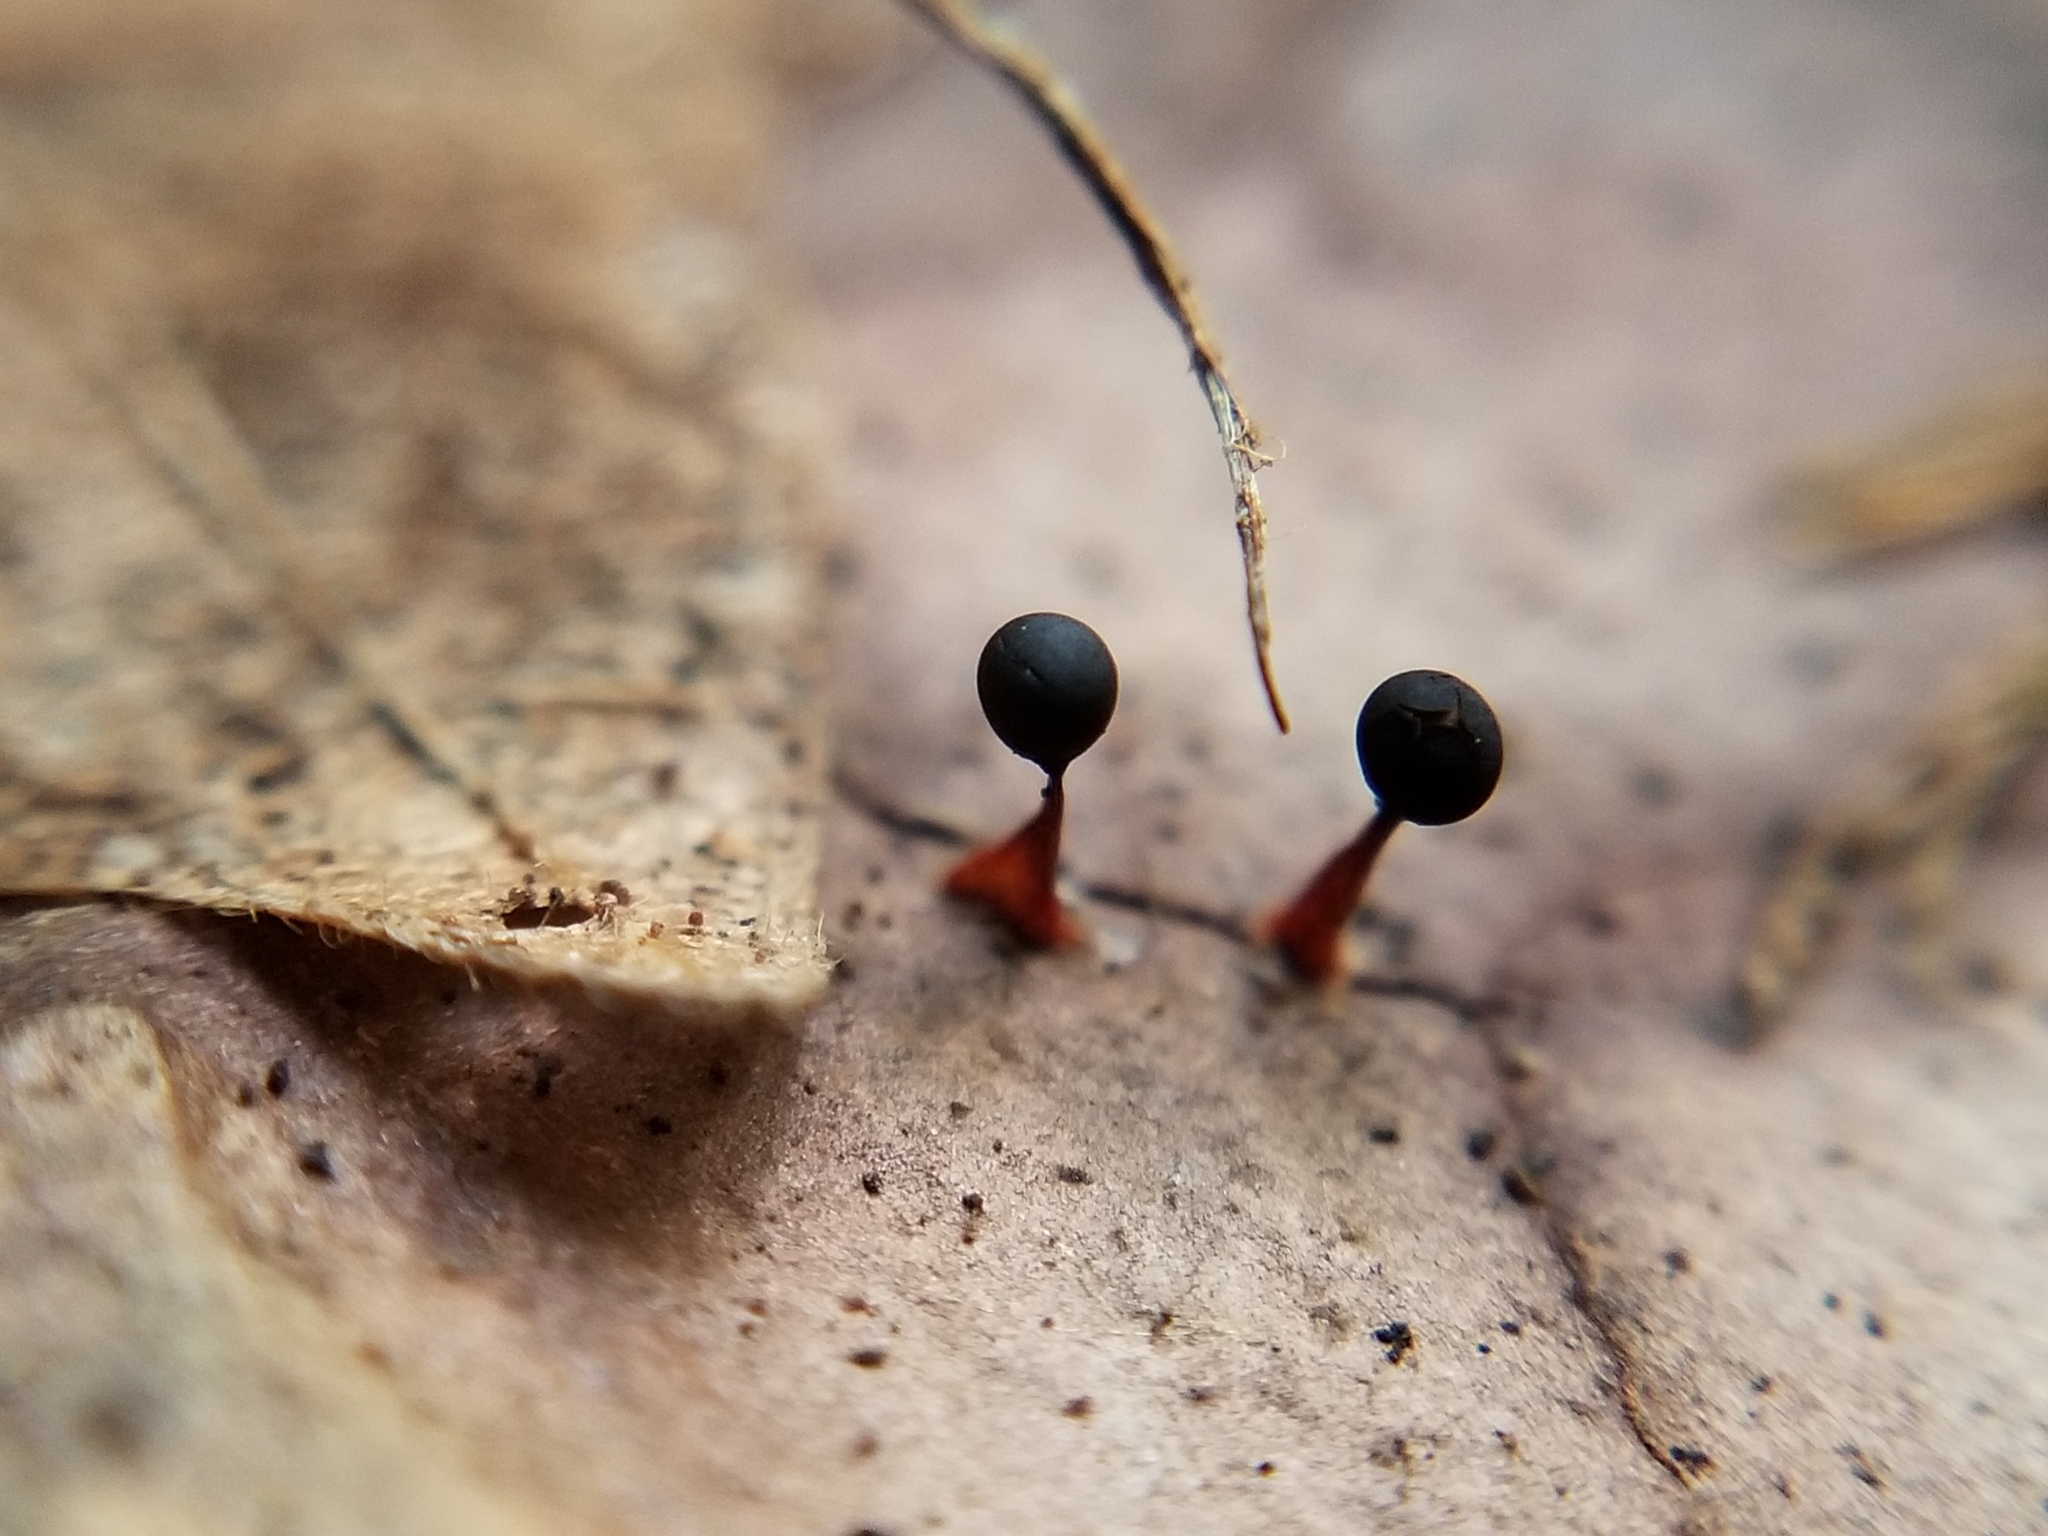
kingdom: Protozoa
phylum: Mycetozoa
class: Myxomycetes
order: Trichiales
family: Trichiaceae
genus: Metatrichia
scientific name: Metatrichia floriformis
